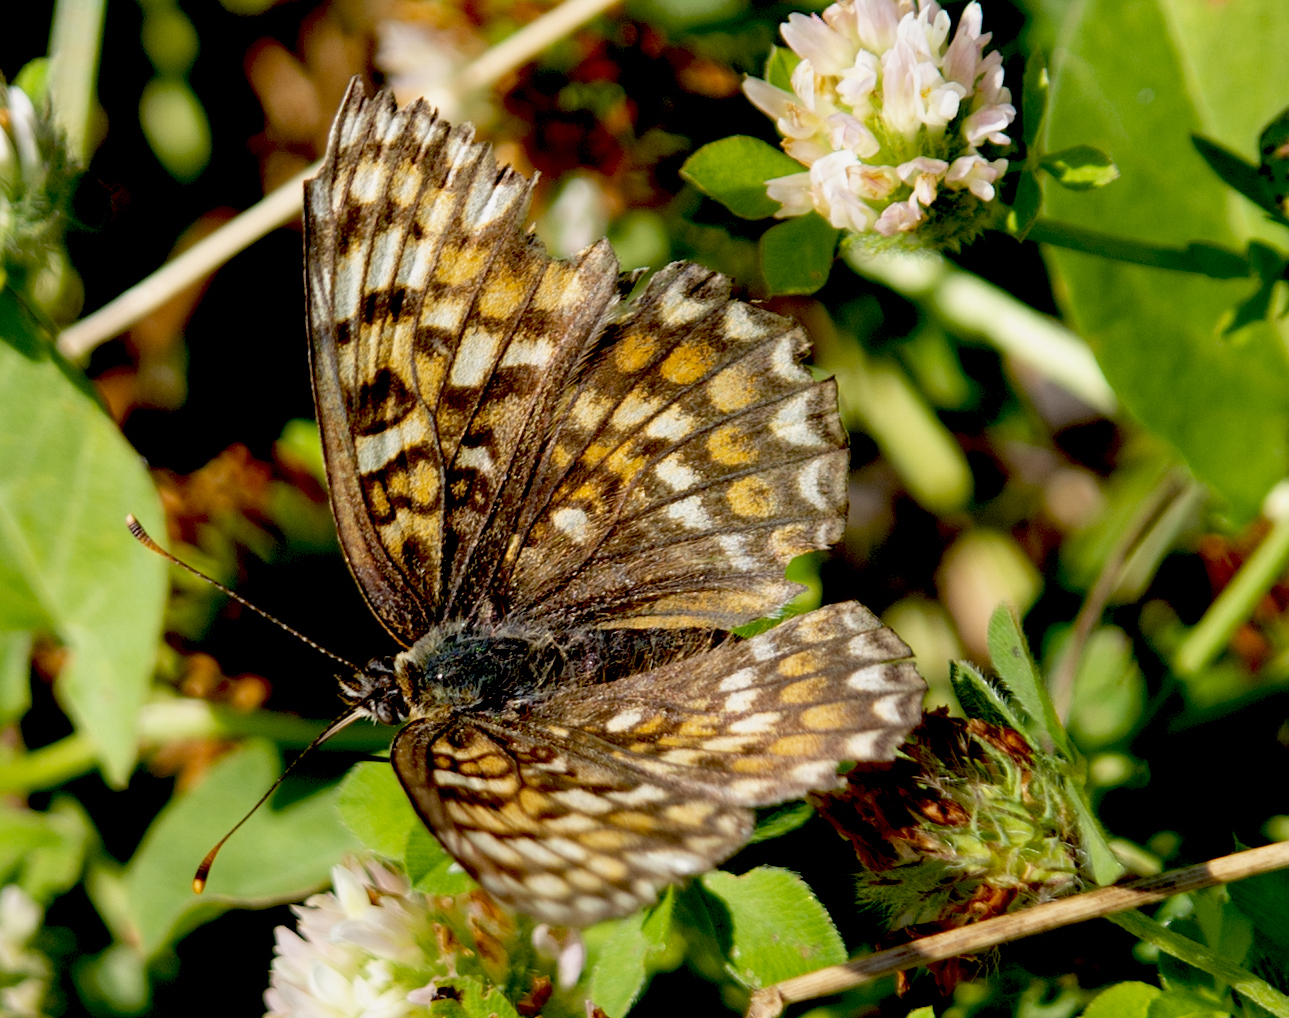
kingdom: Animalia
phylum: Arthropoda
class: Insecta
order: Lepidoptera
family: Nymphalidae
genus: Melitaea
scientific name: Melitaea
